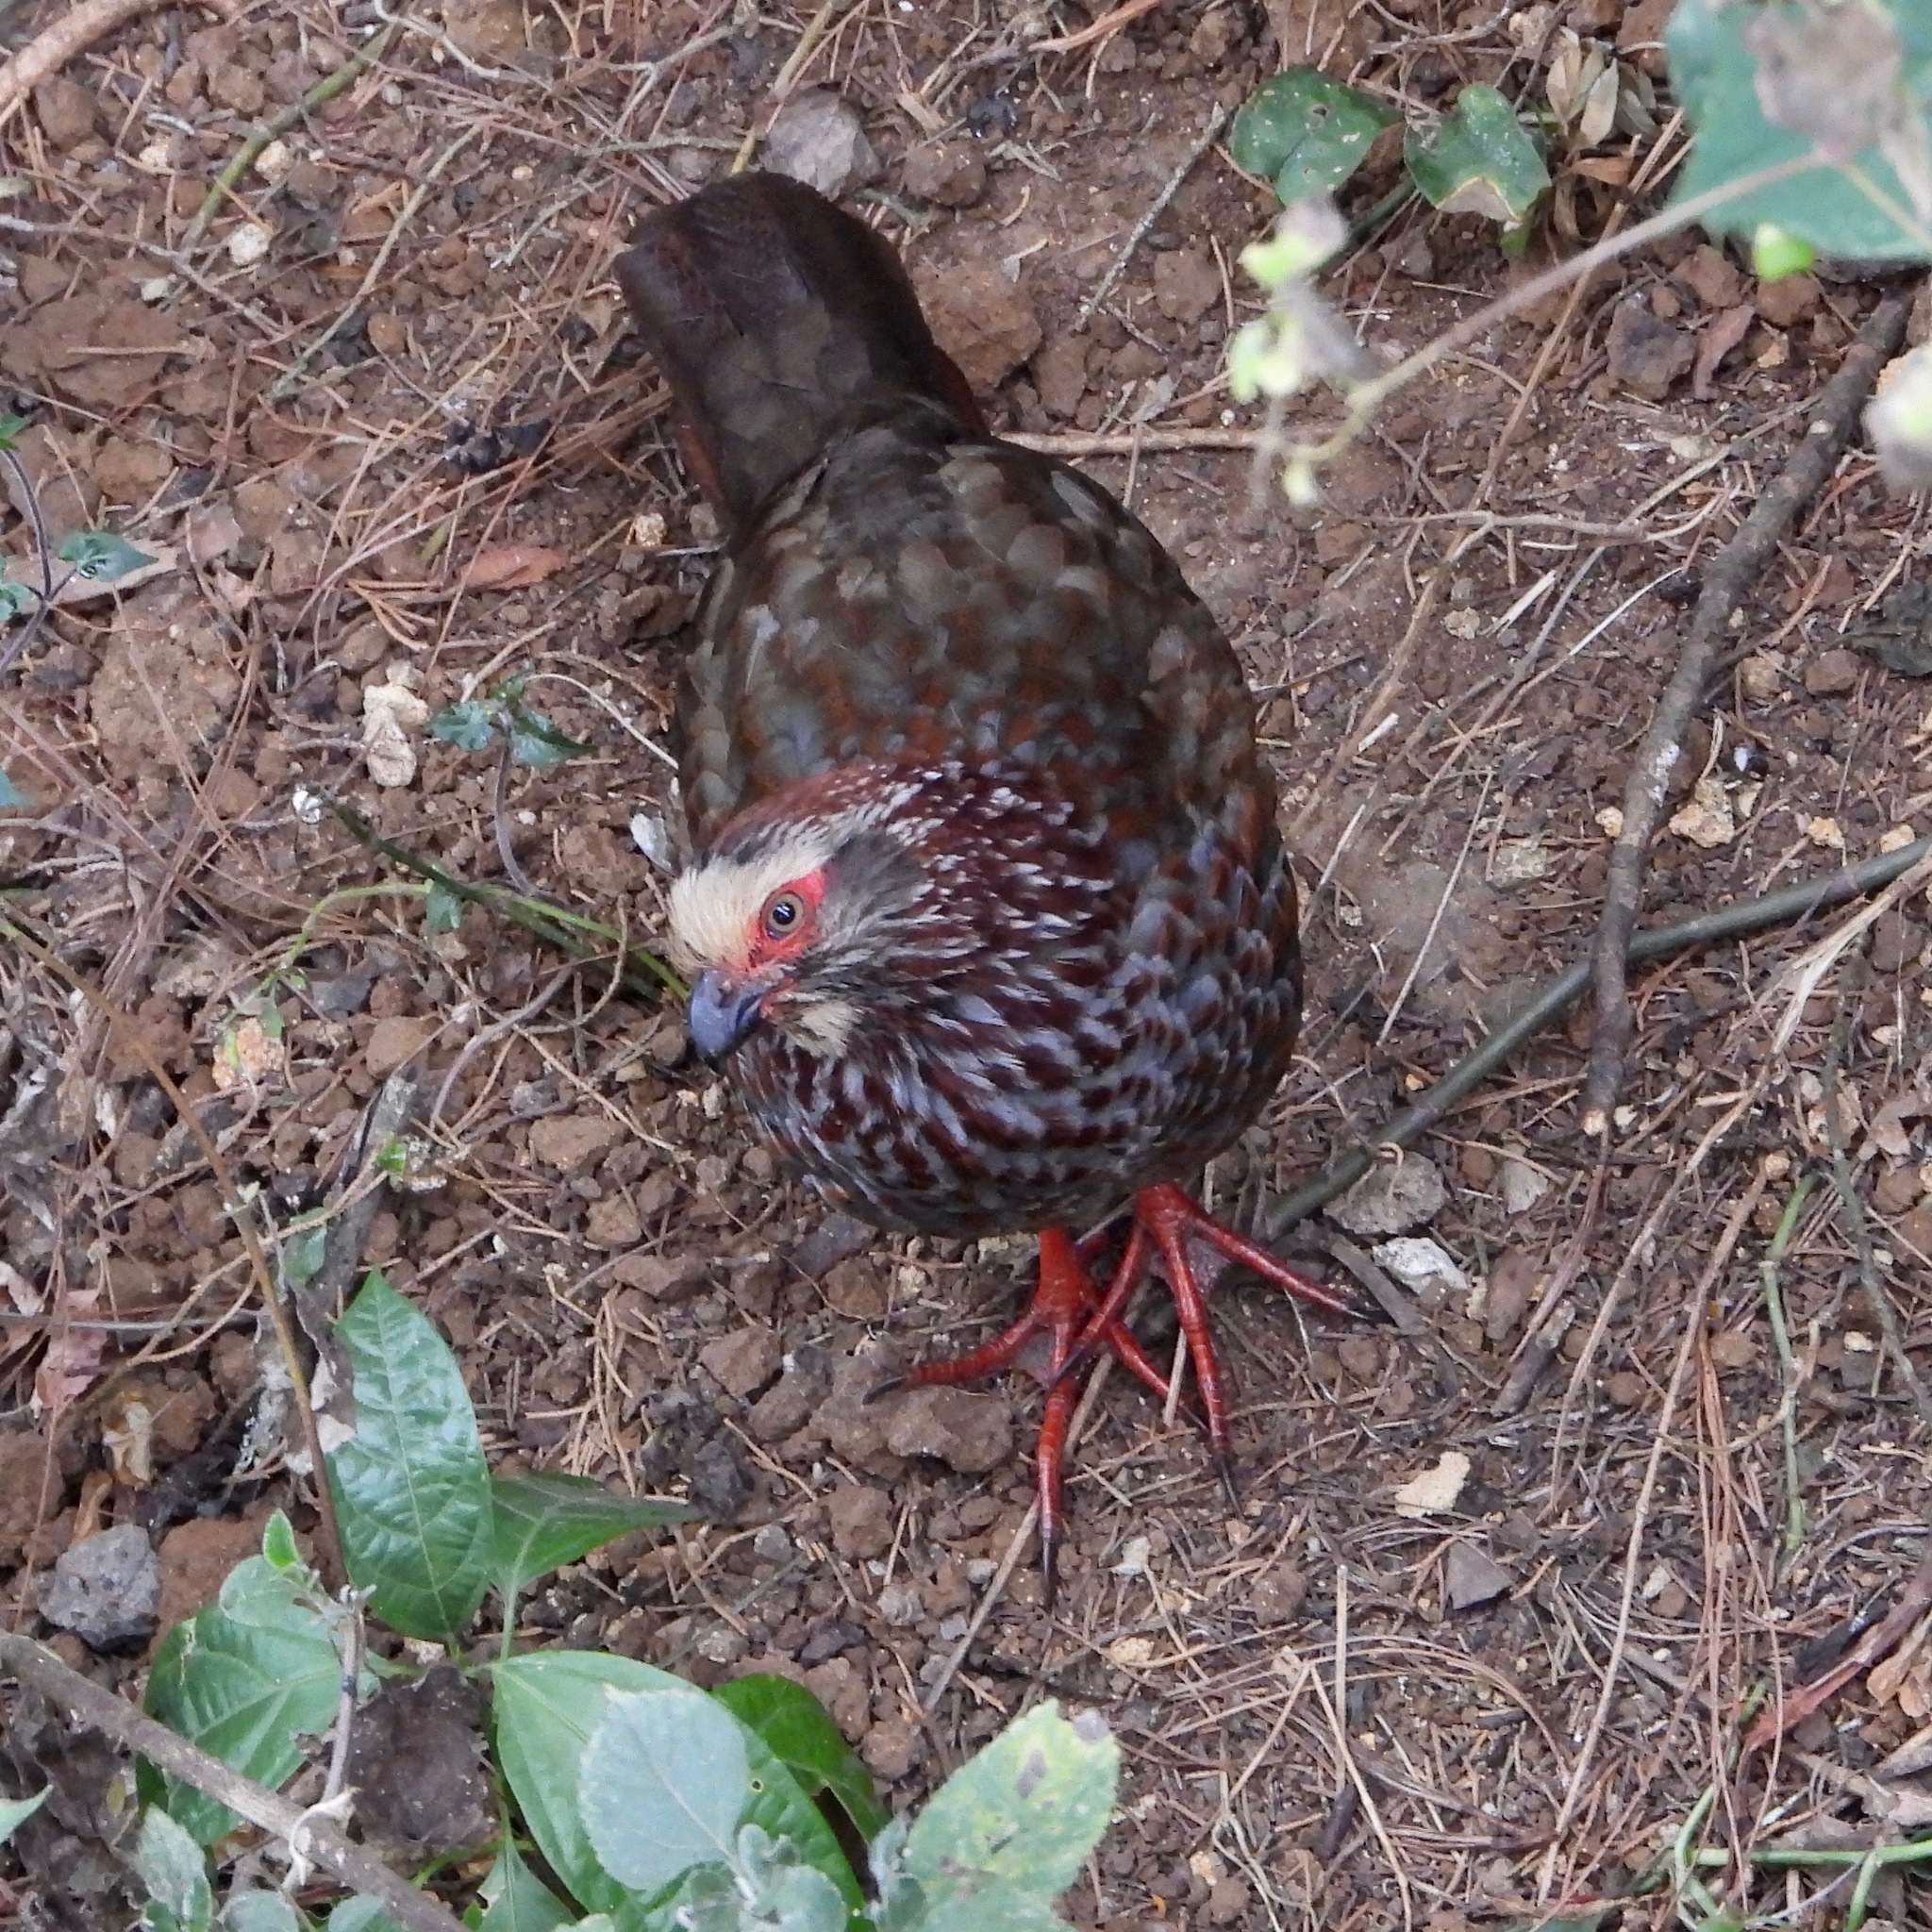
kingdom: Animalia
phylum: Chordata
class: Aves
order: Galliformes
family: Odontophoridae
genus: Dendrortyx
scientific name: Dendrortyx leucophrys
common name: Buffy-crowned wood-partridge
